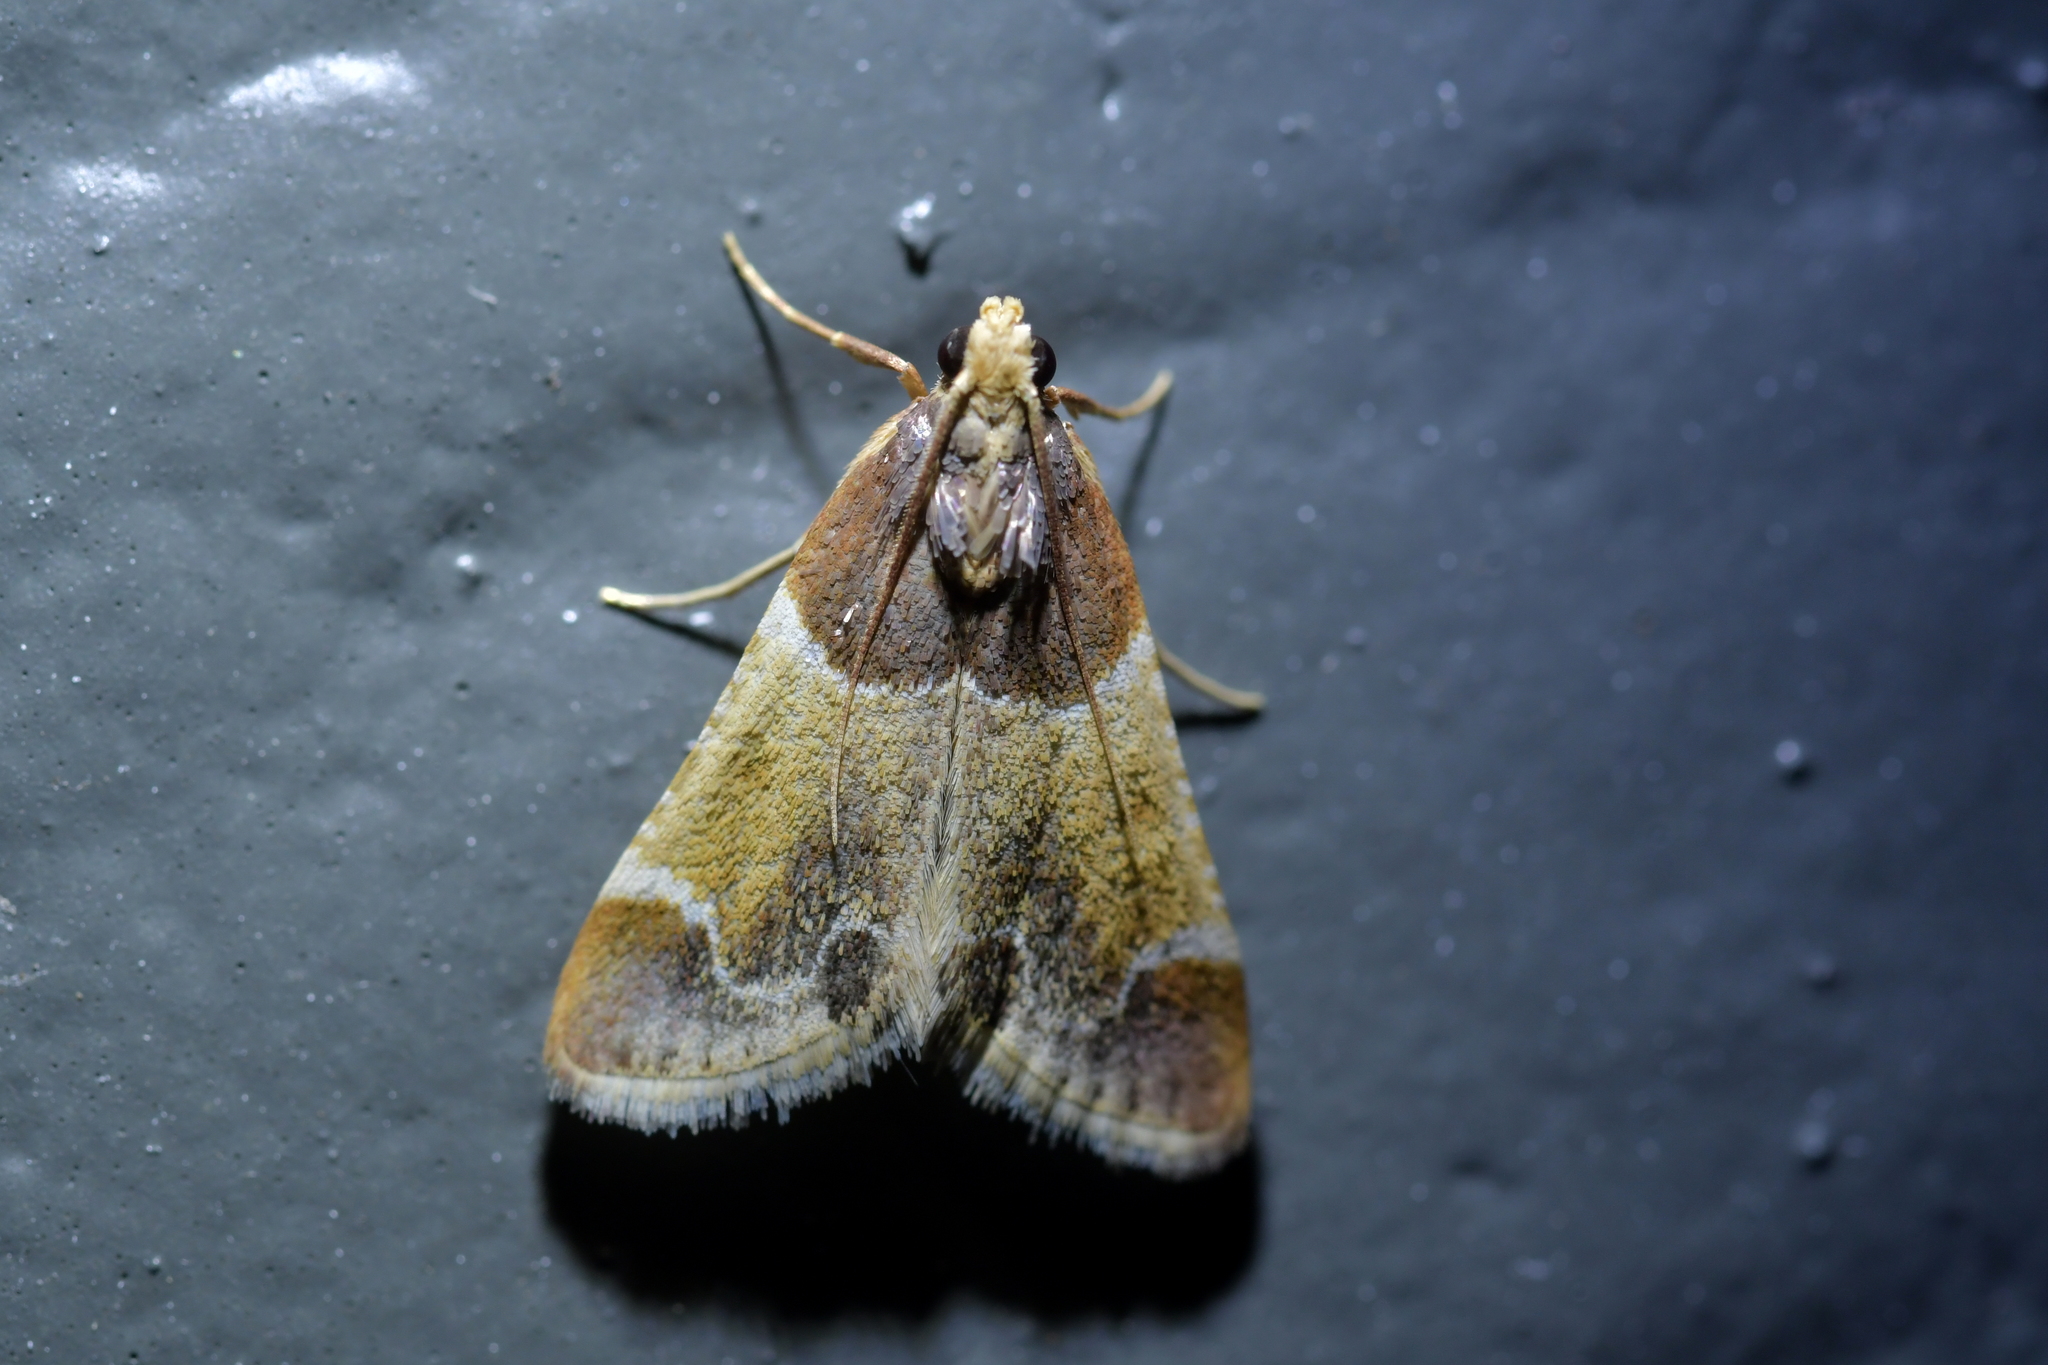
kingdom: Animalia
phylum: Arthropoda
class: Insecta
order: Lepidoptera
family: Pyralidae
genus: Pyralis
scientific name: Pyralis farinalis
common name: Meal moth
